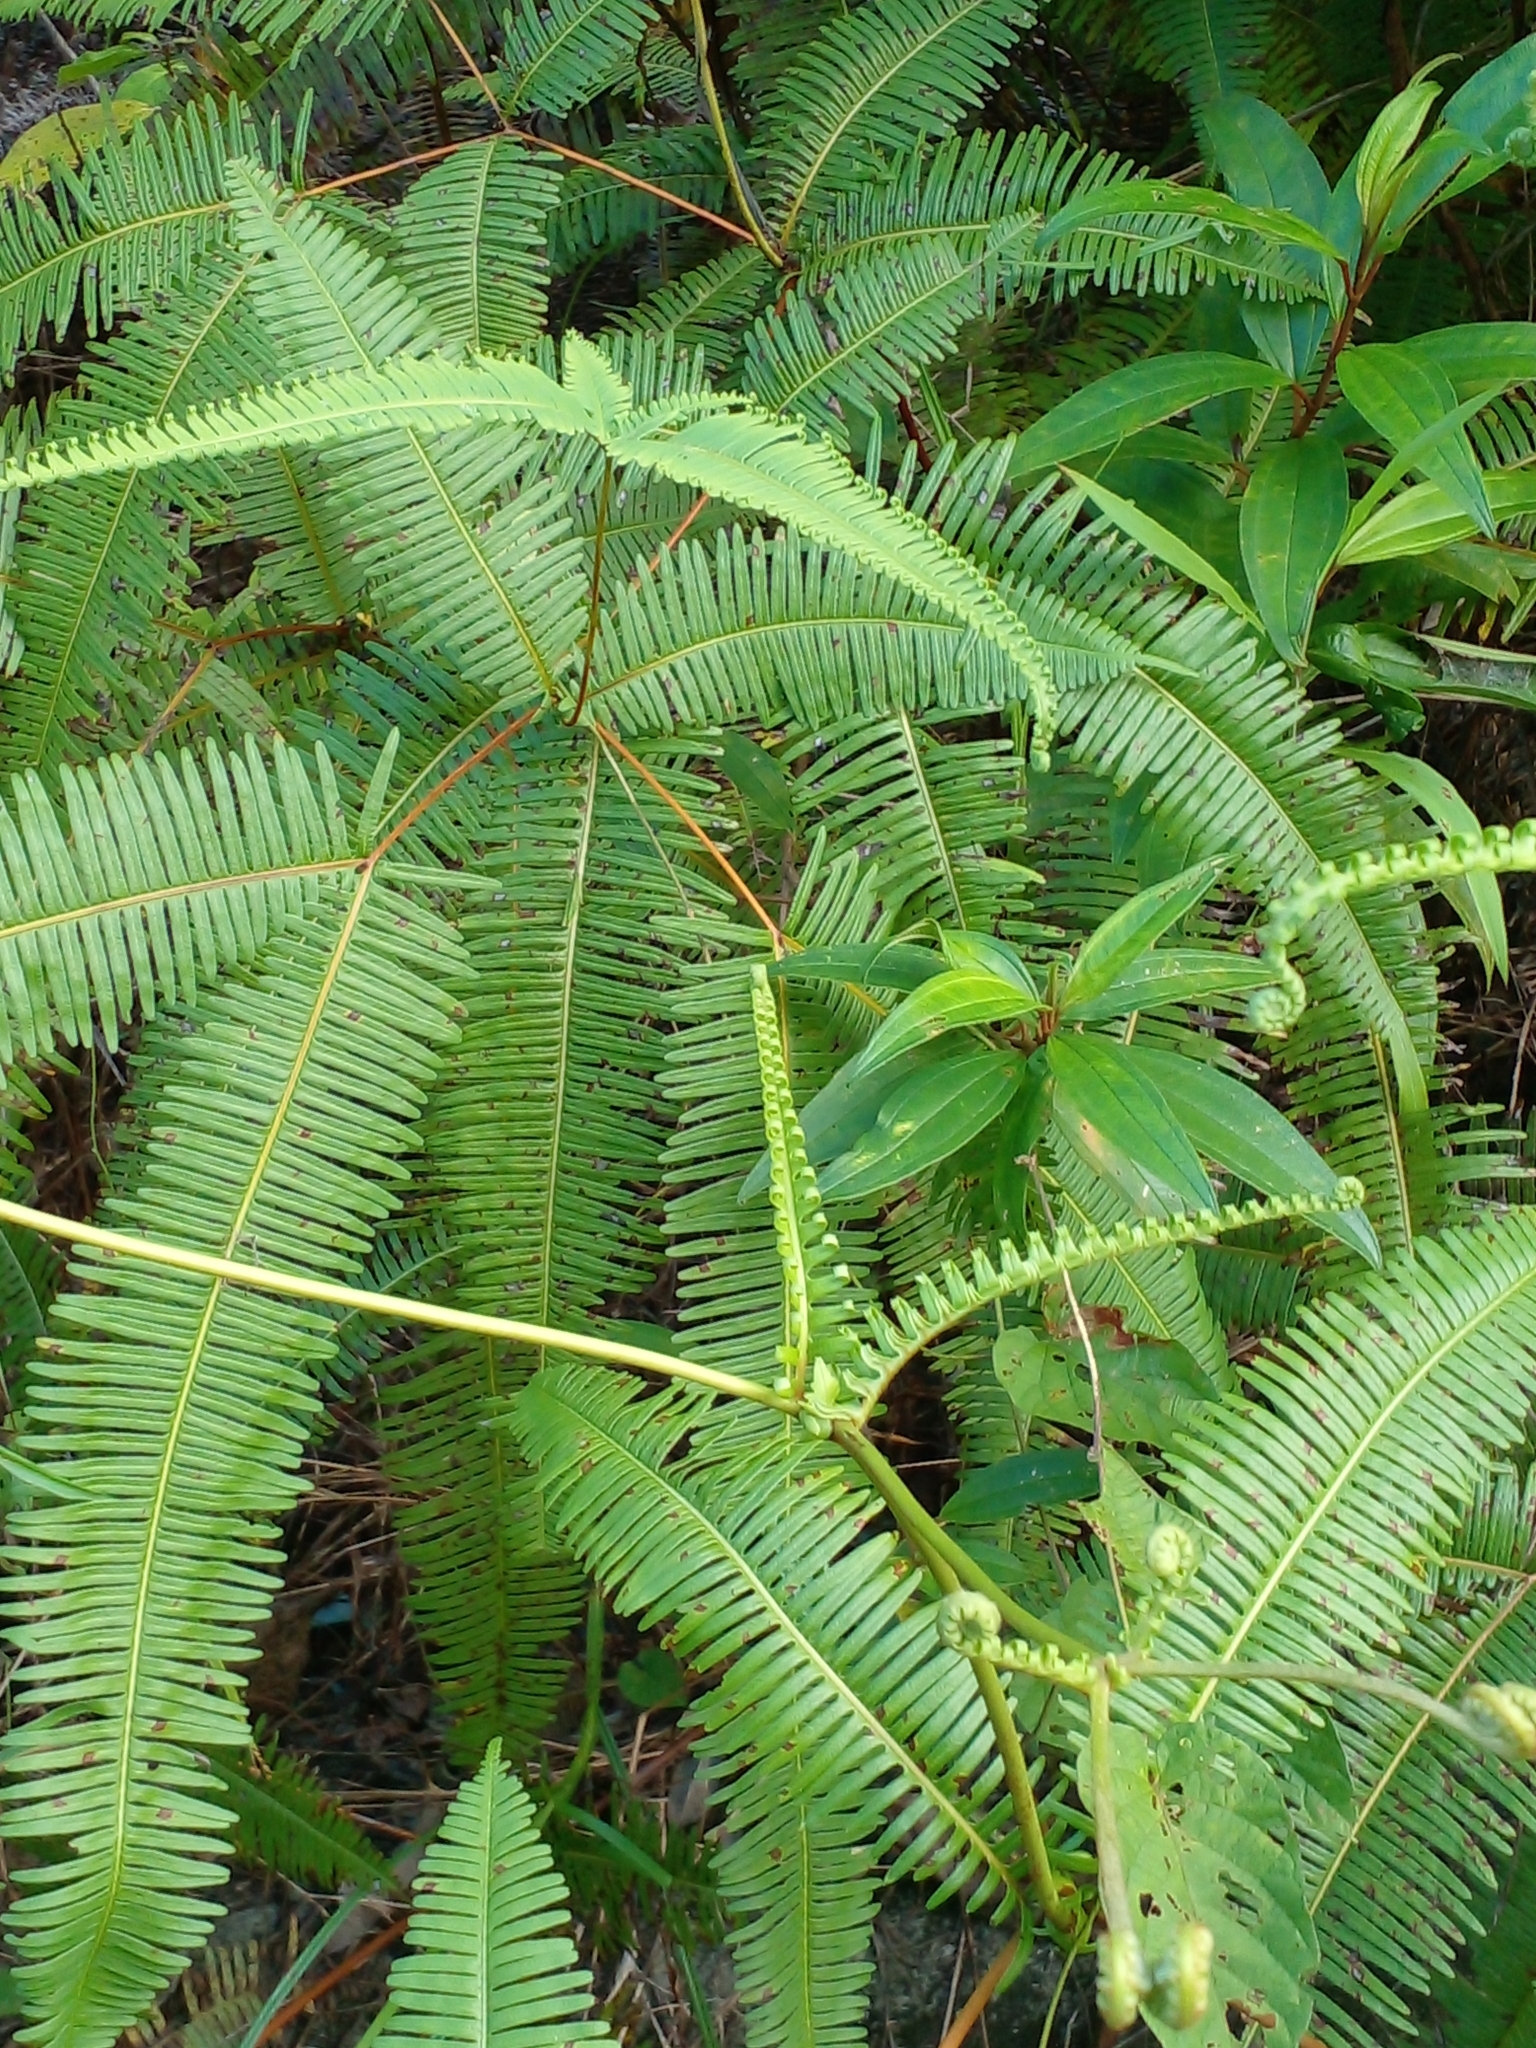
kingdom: Plantae
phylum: Tracheophyta
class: Polypodiopsida
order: Gleicheniales
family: Gleicheniaceae
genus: Dicranopteris
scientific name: Dicranopteris linearis
